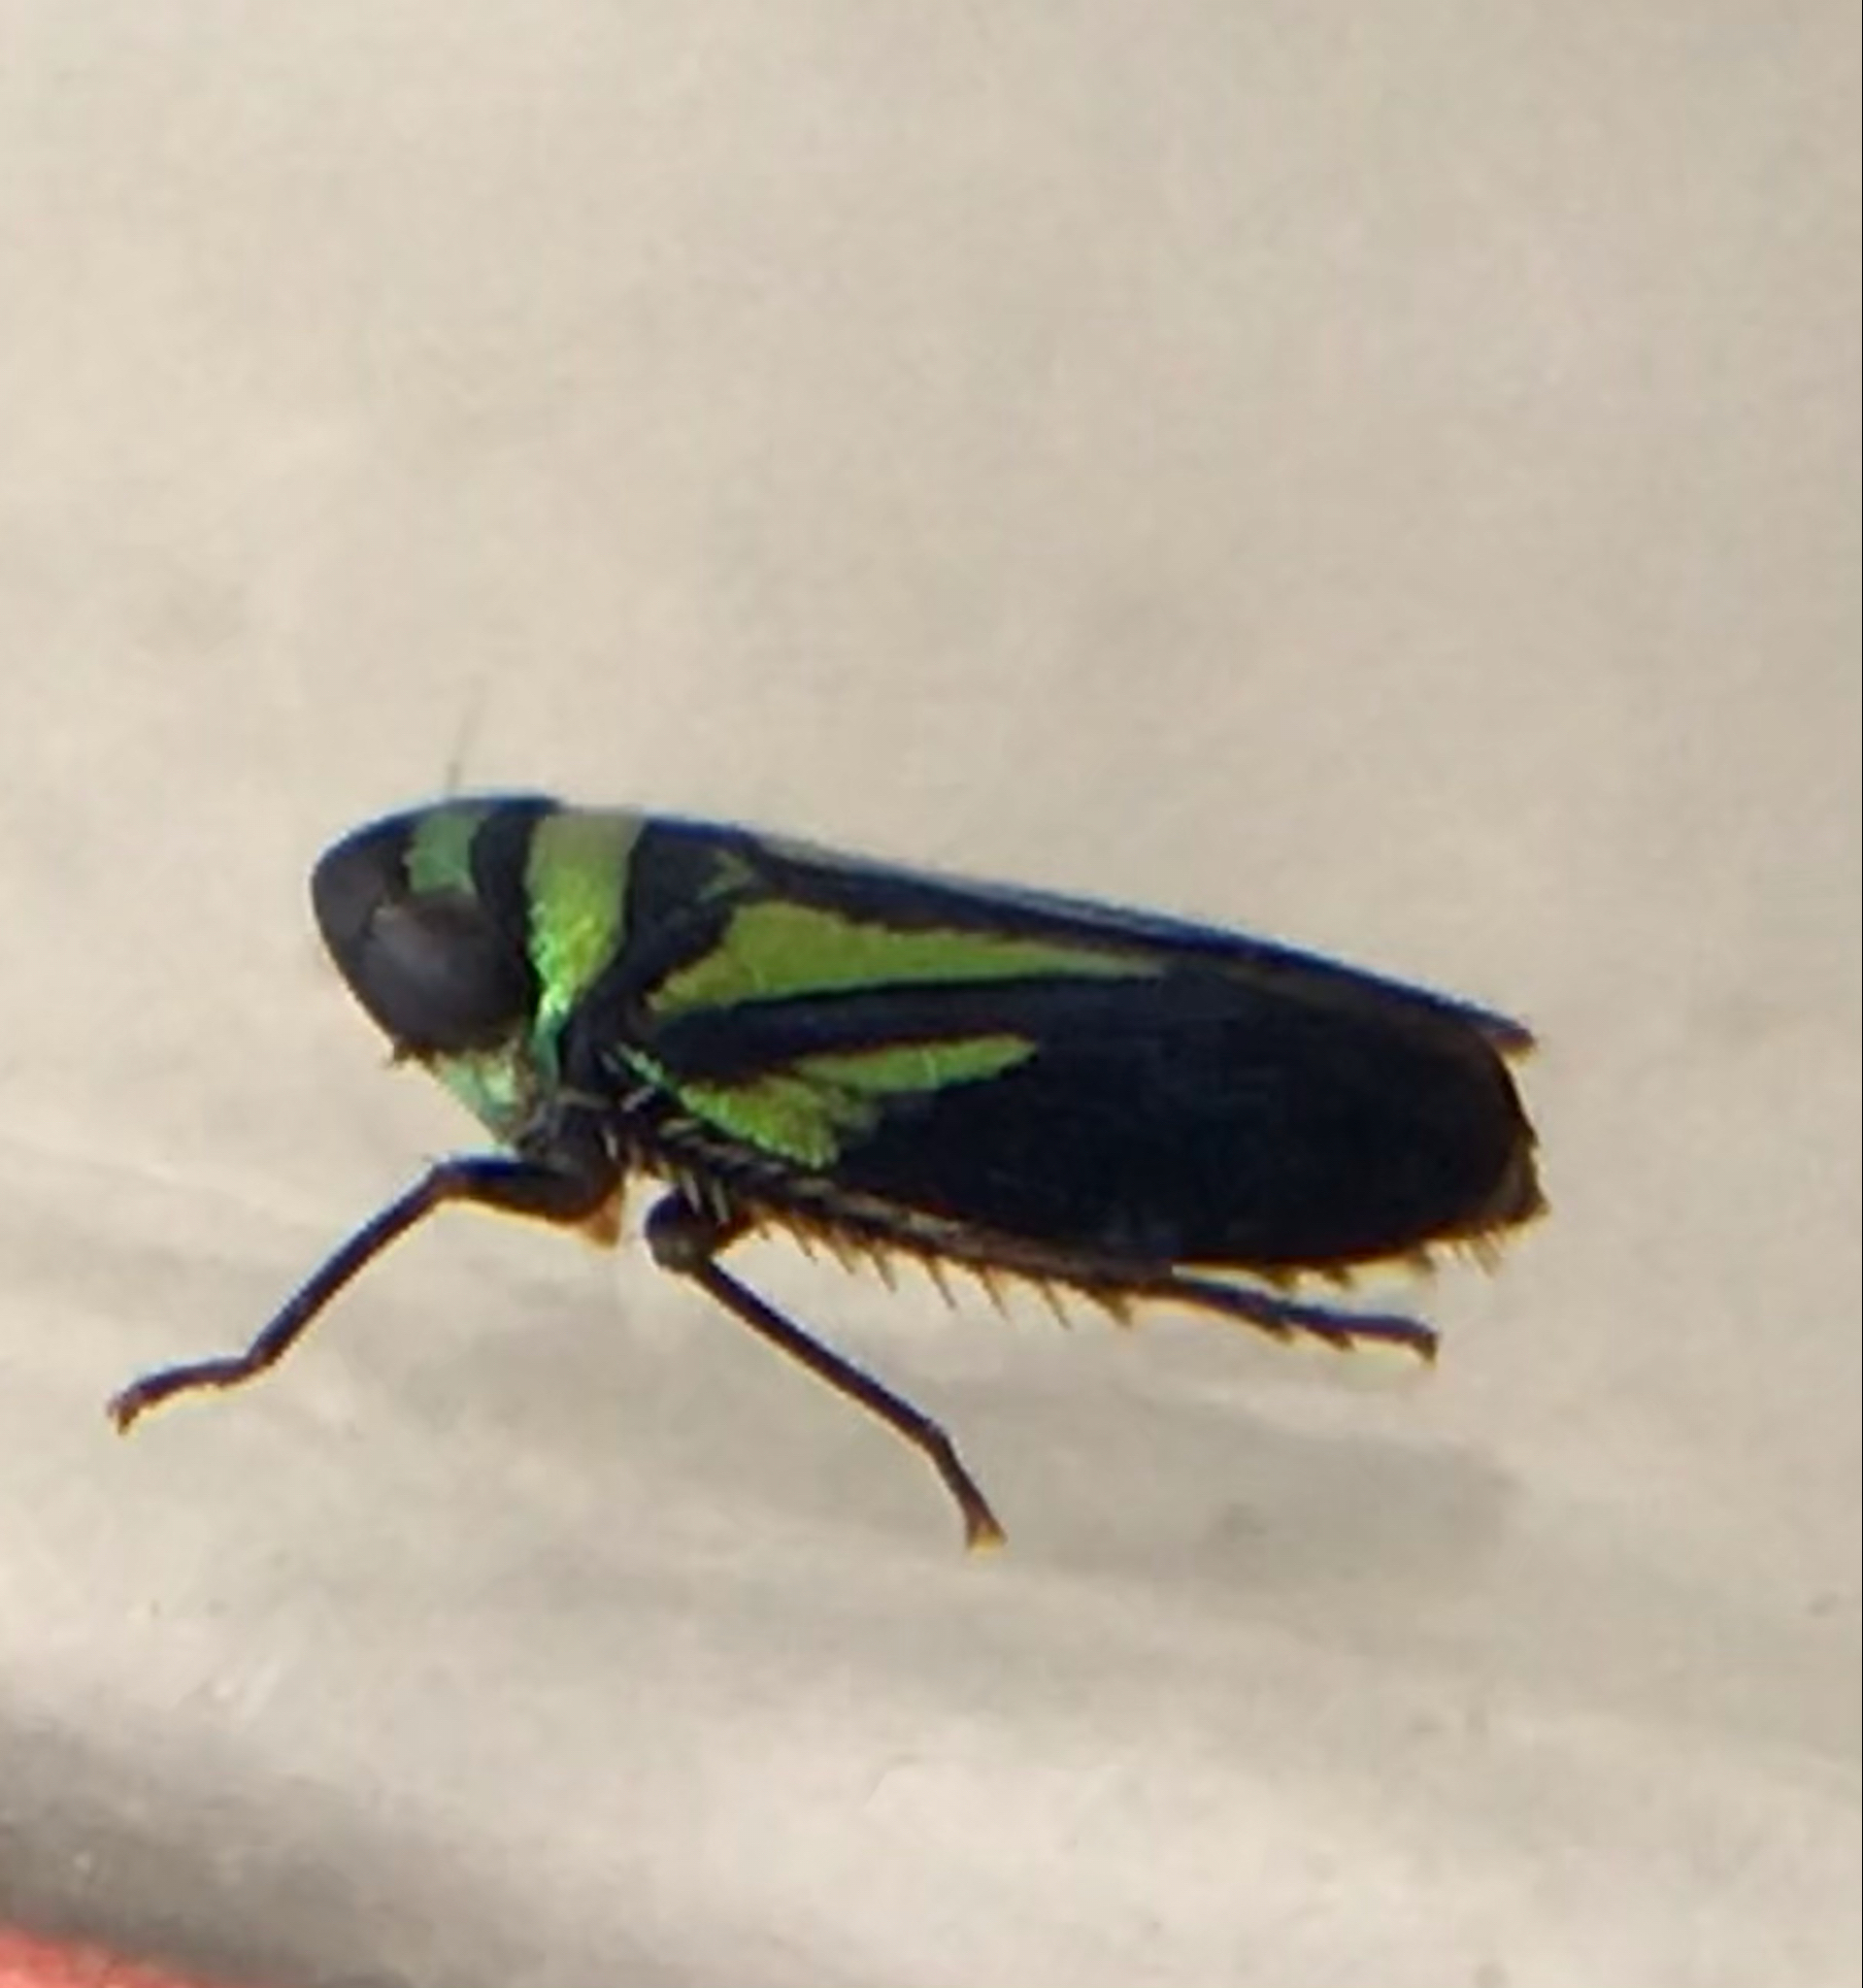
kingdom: Animalia
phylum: Arthropoda
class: Insecta
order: Hemiptera
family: Cicadellidae
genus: Stirellus
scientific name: Stirellus bicolor
